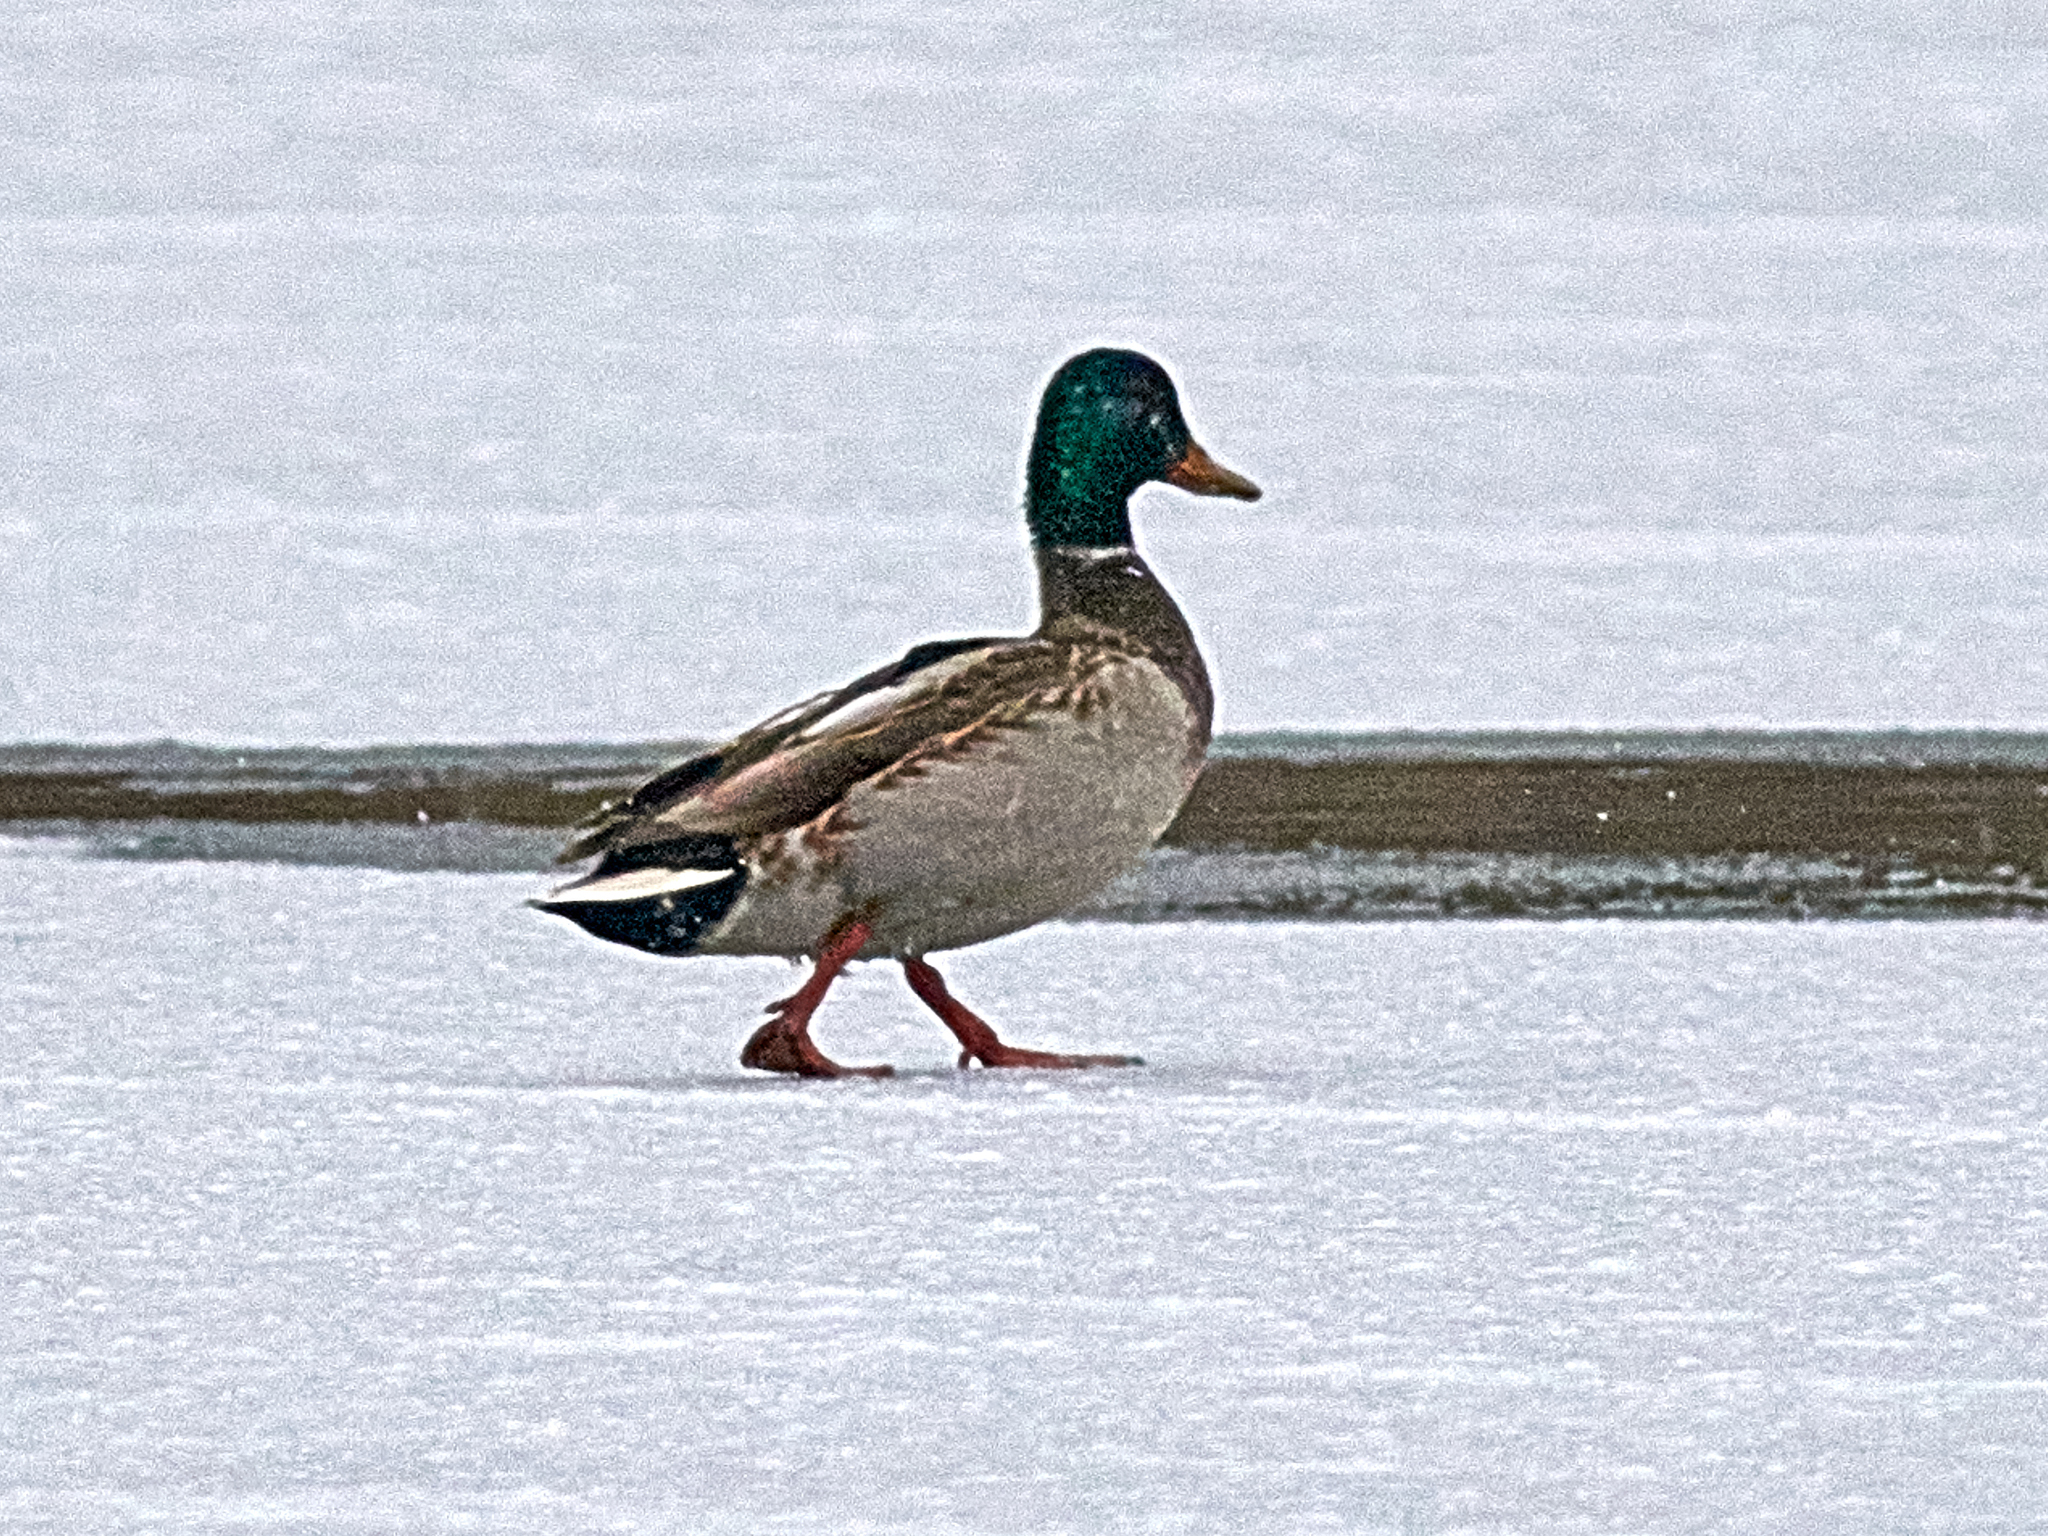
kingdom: Animalia
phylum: Chordata
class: Aves
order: Anseriformes
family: Anatidae
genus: Anas
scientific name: Anas platyrhynchos
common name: Mallard
